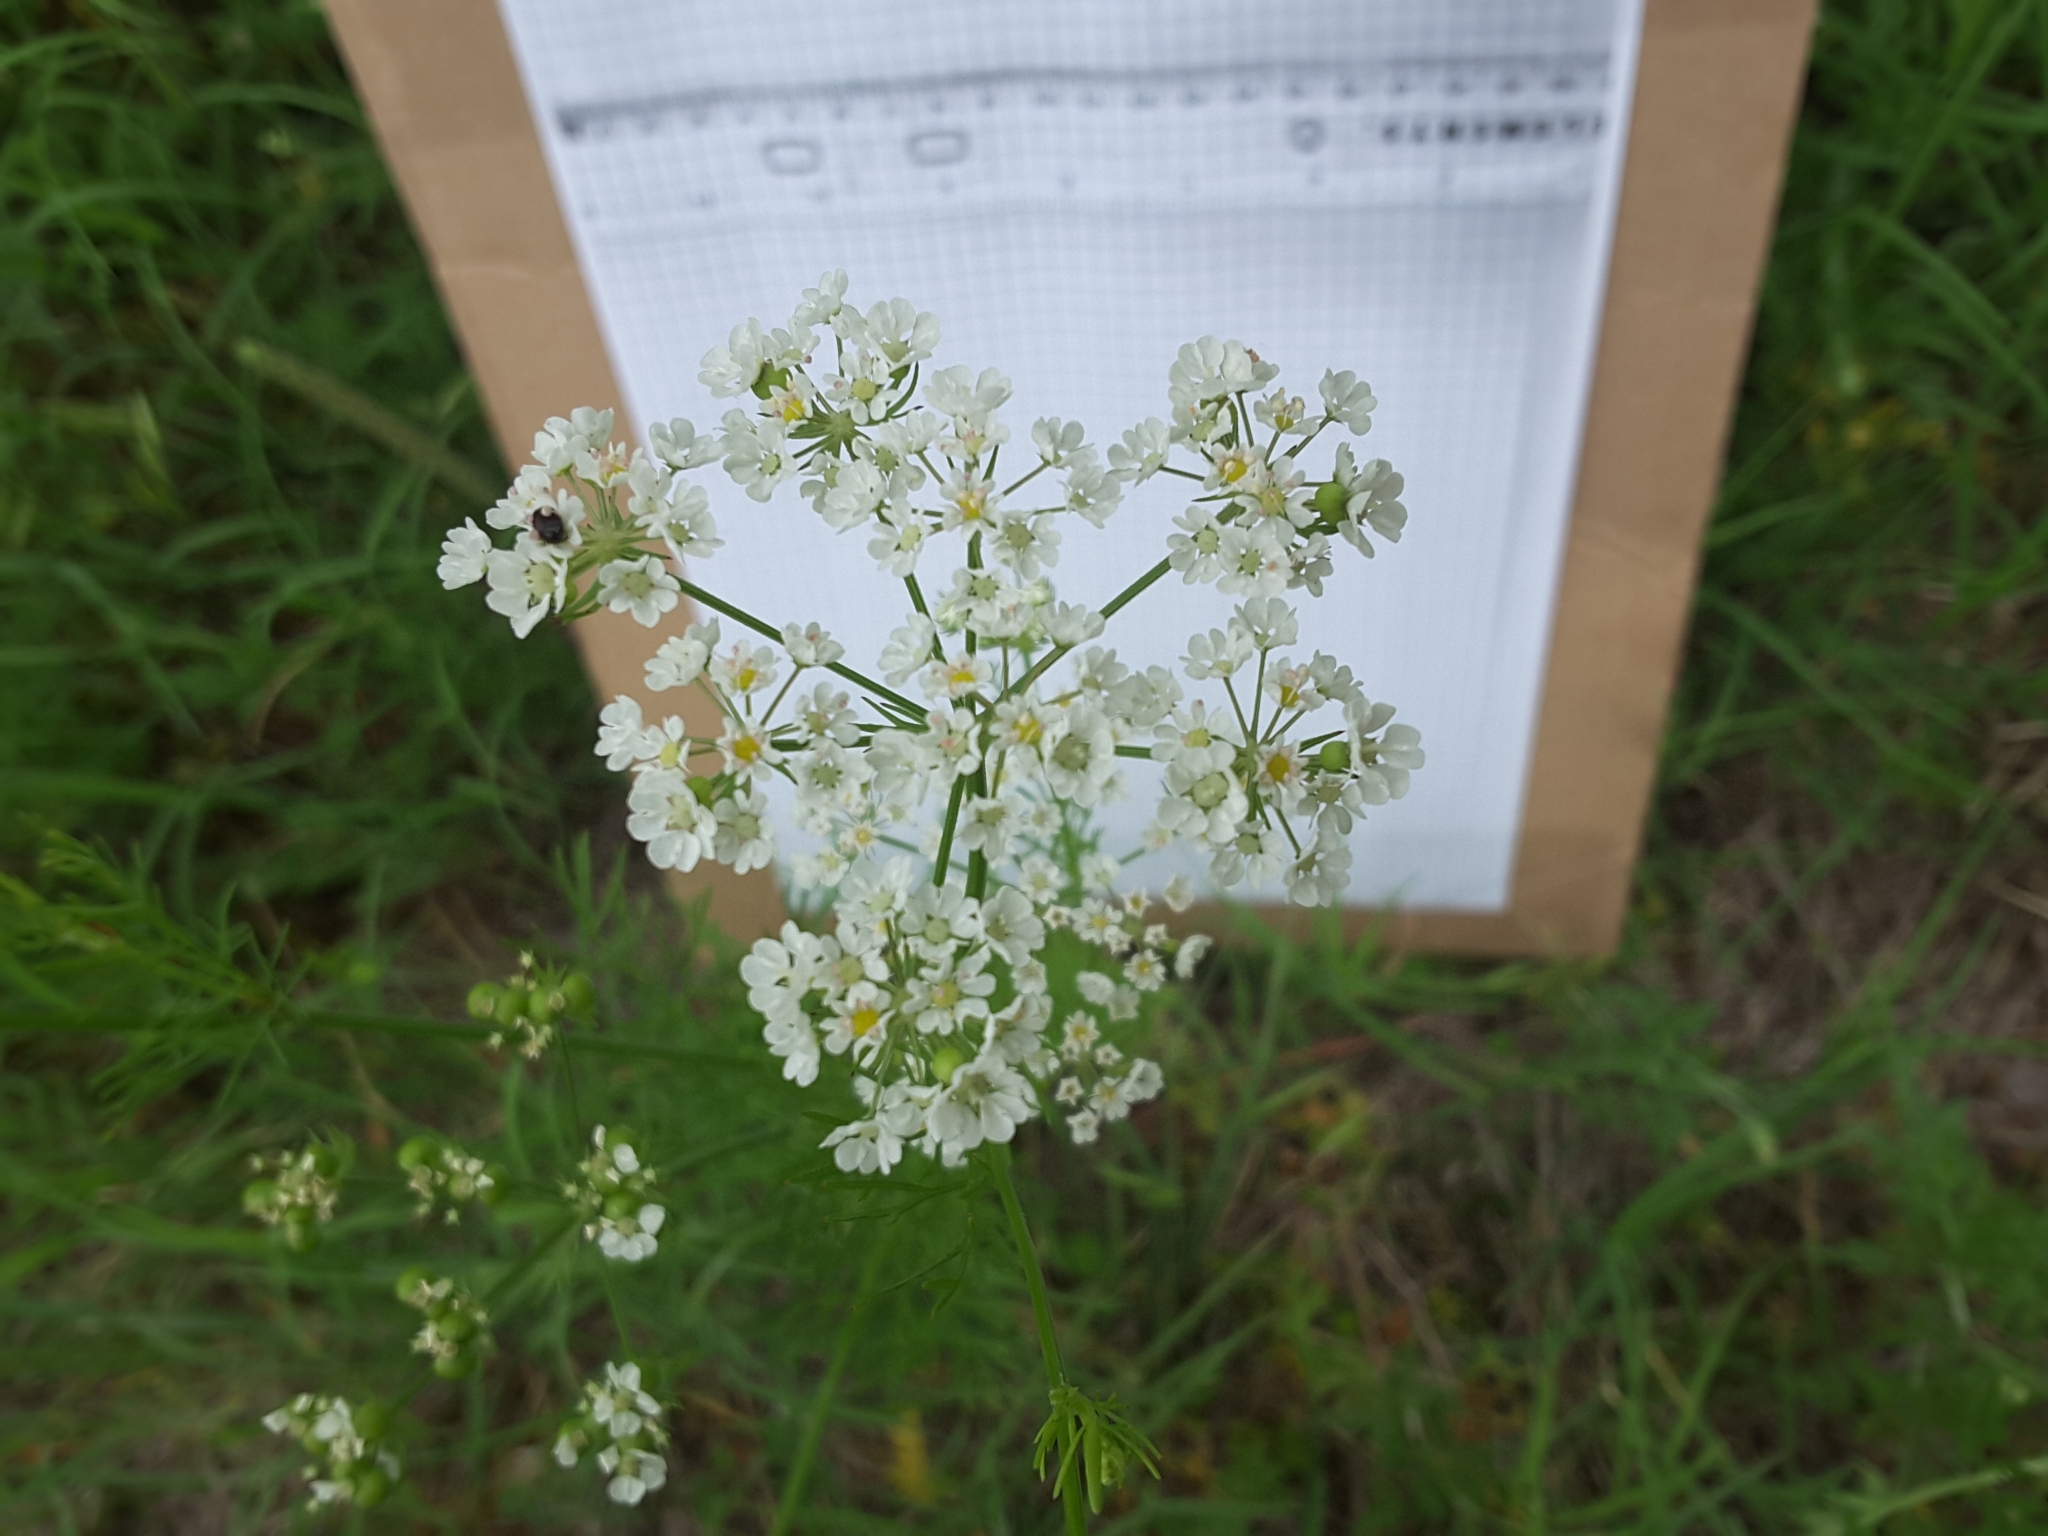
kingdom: Plantae
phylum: Tracheophyta
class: Magnoliopsida
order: Apiales
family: Apiaceae
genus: Atrema
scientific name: Atrema americanum
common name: Prairie-bishop
